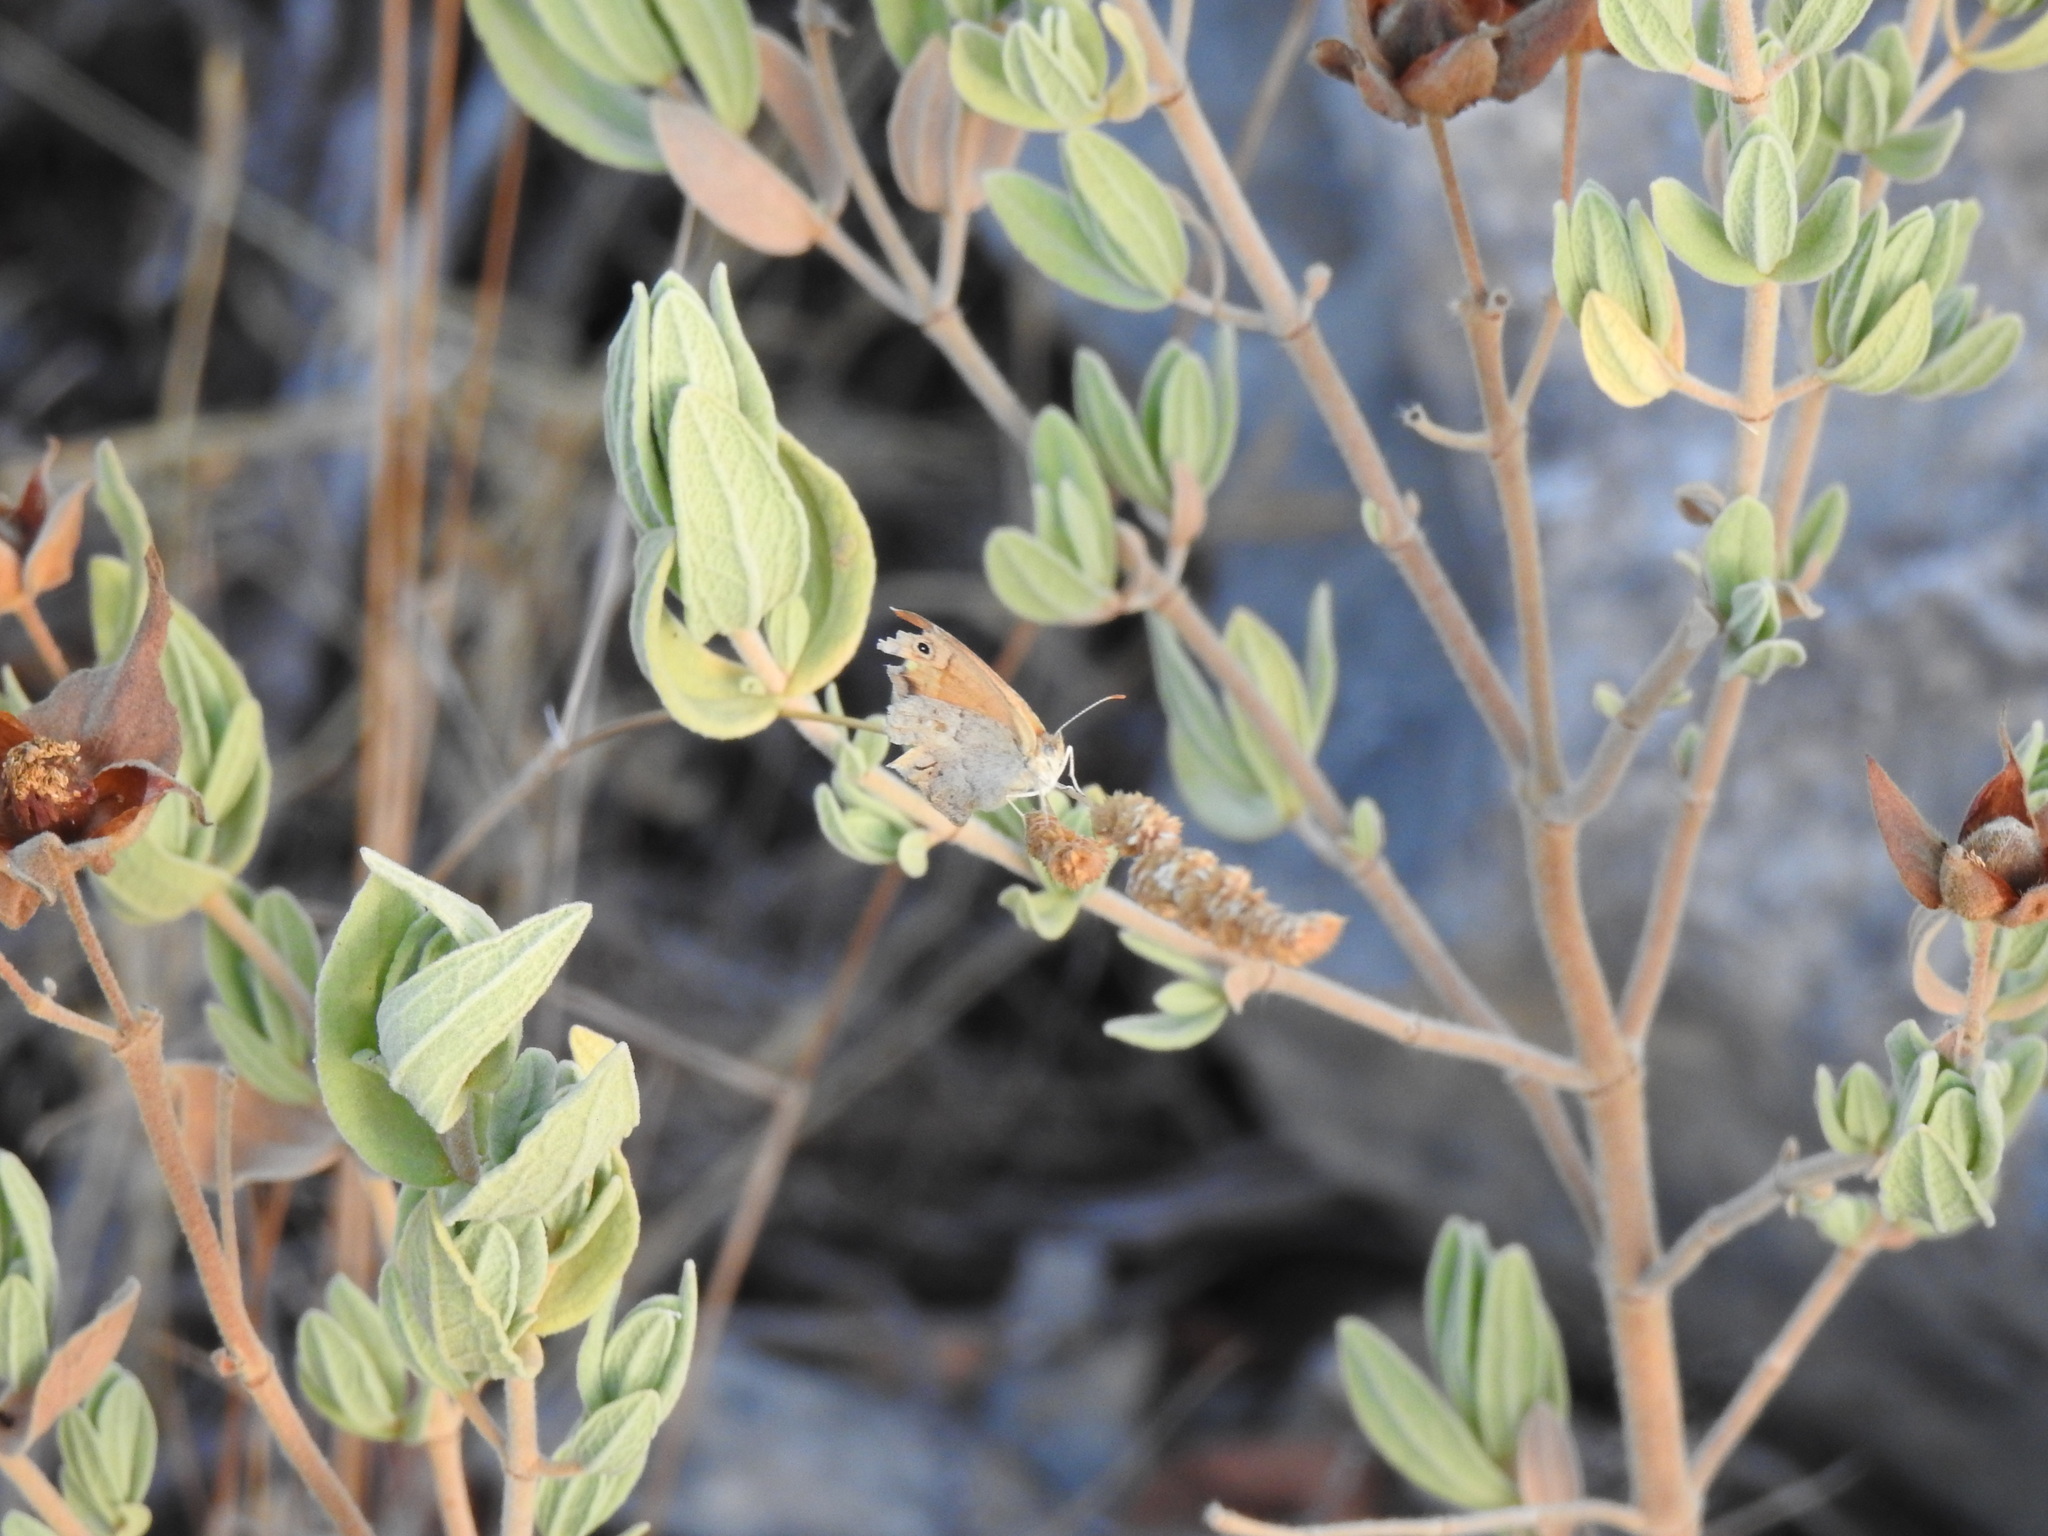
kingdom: Animalia
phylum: Arthropoda
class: Insecta
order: Lepidoptera
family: Nymphalidae
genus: Coenonympha
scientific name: Coenonympha pamphilus
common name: Small heath
